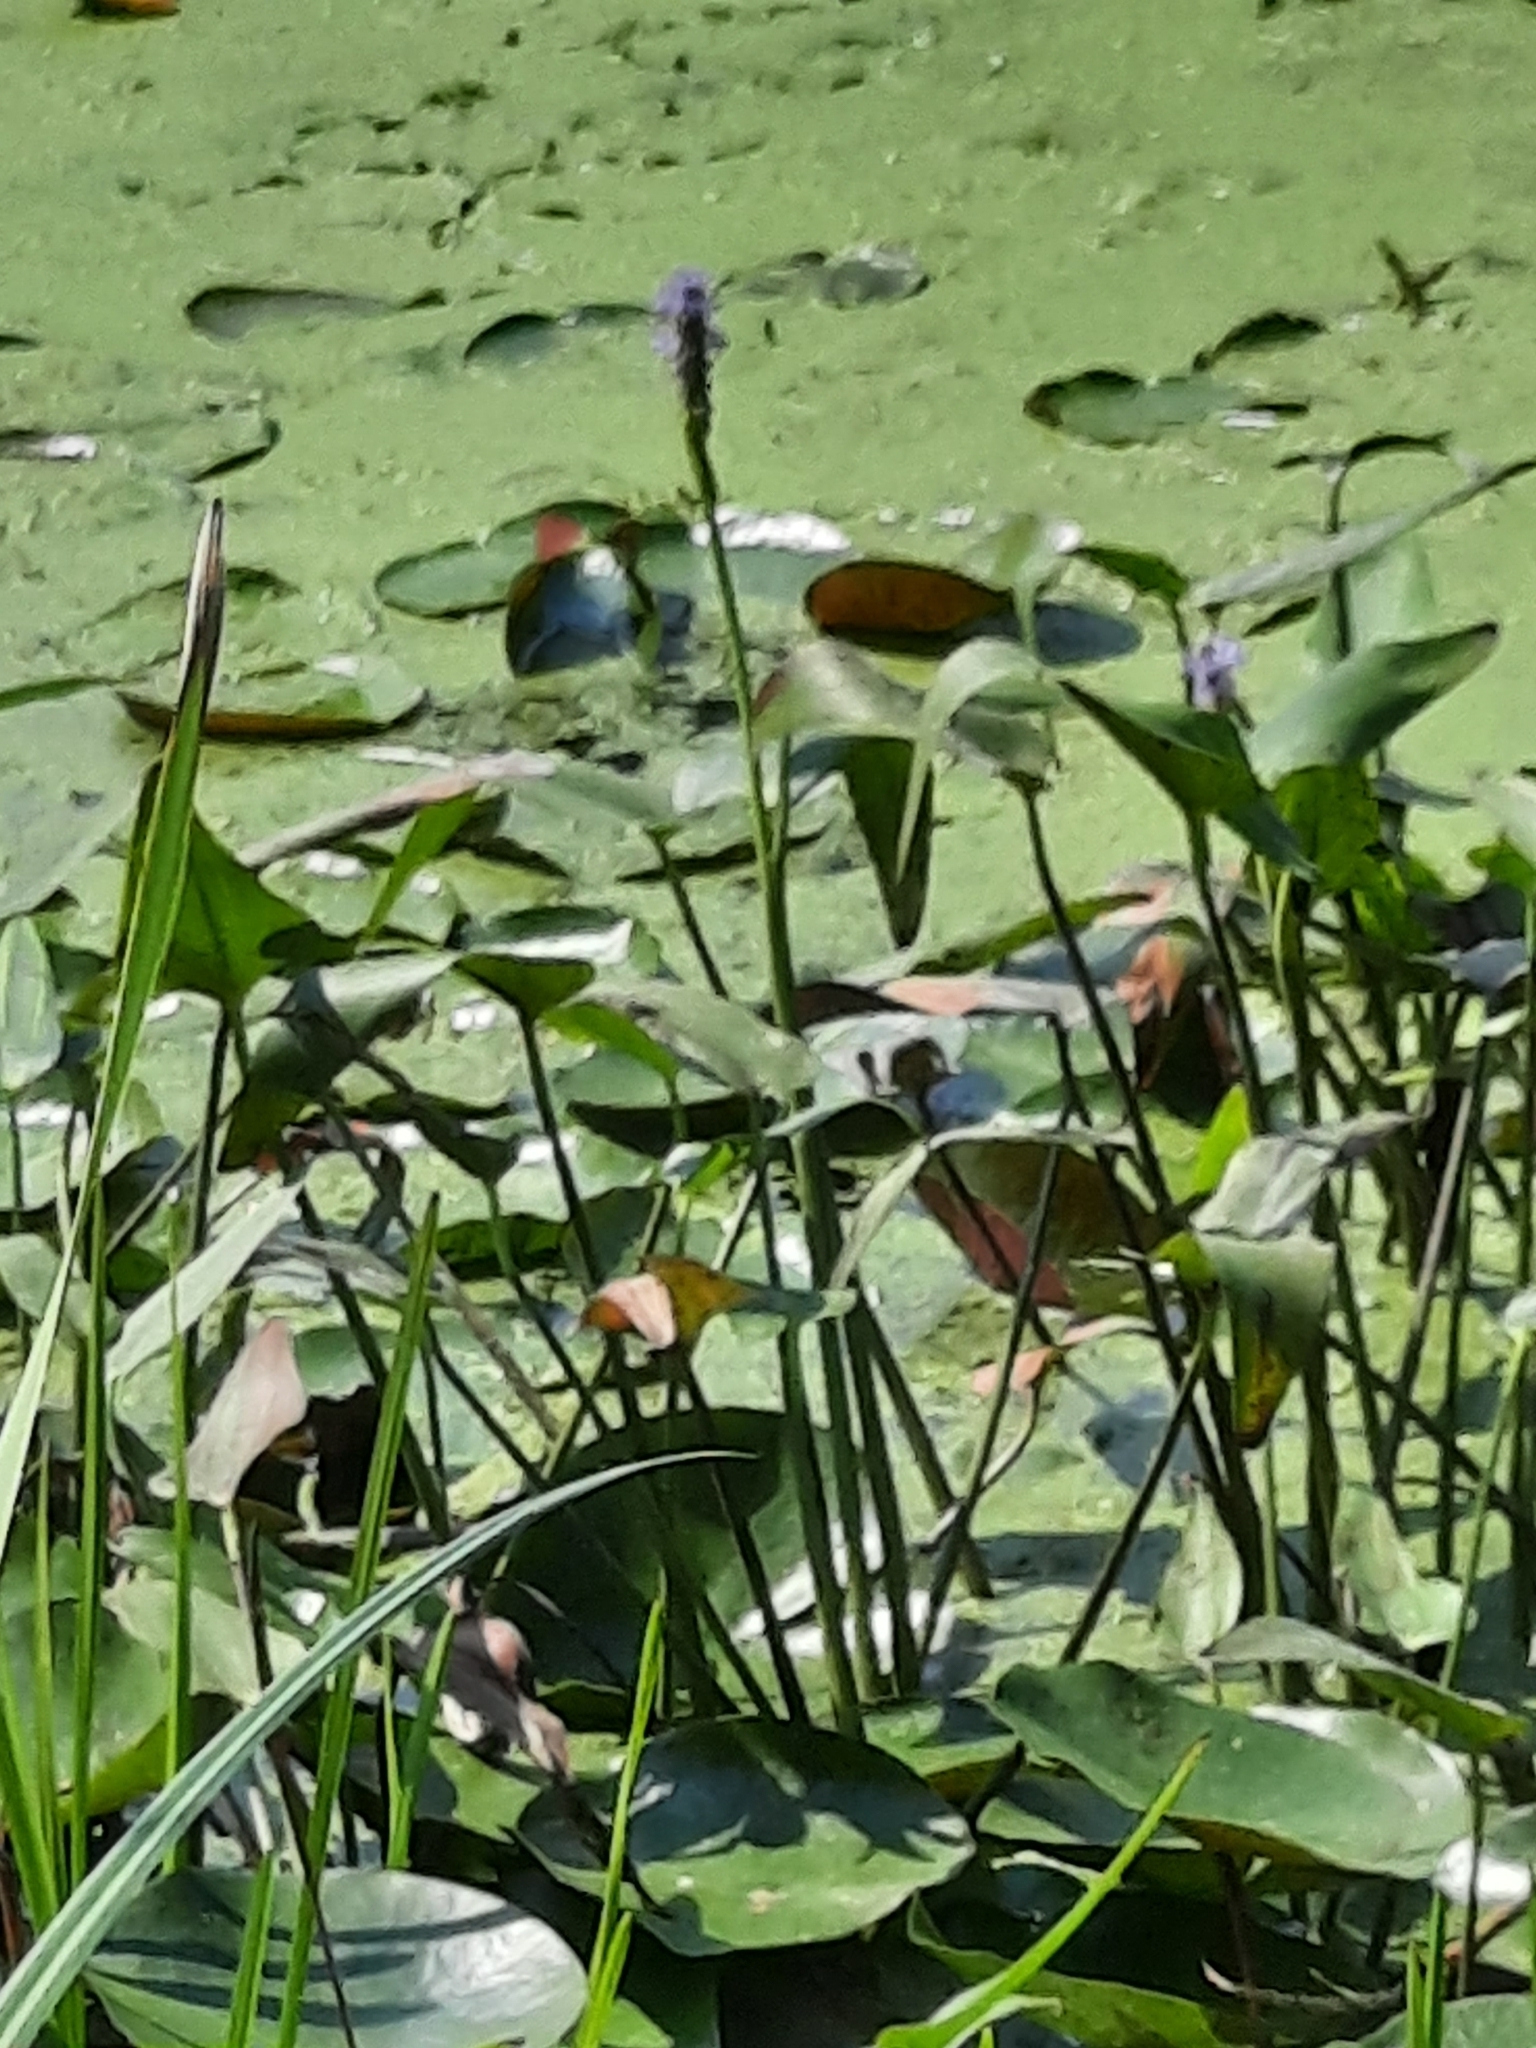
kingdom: Plantae
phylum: Tracheophyta
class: Liliopsida
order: Commelinales
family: Pontederiaceae
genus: Pontederia
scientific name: Pontederia cordata
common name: Pickerelweed
